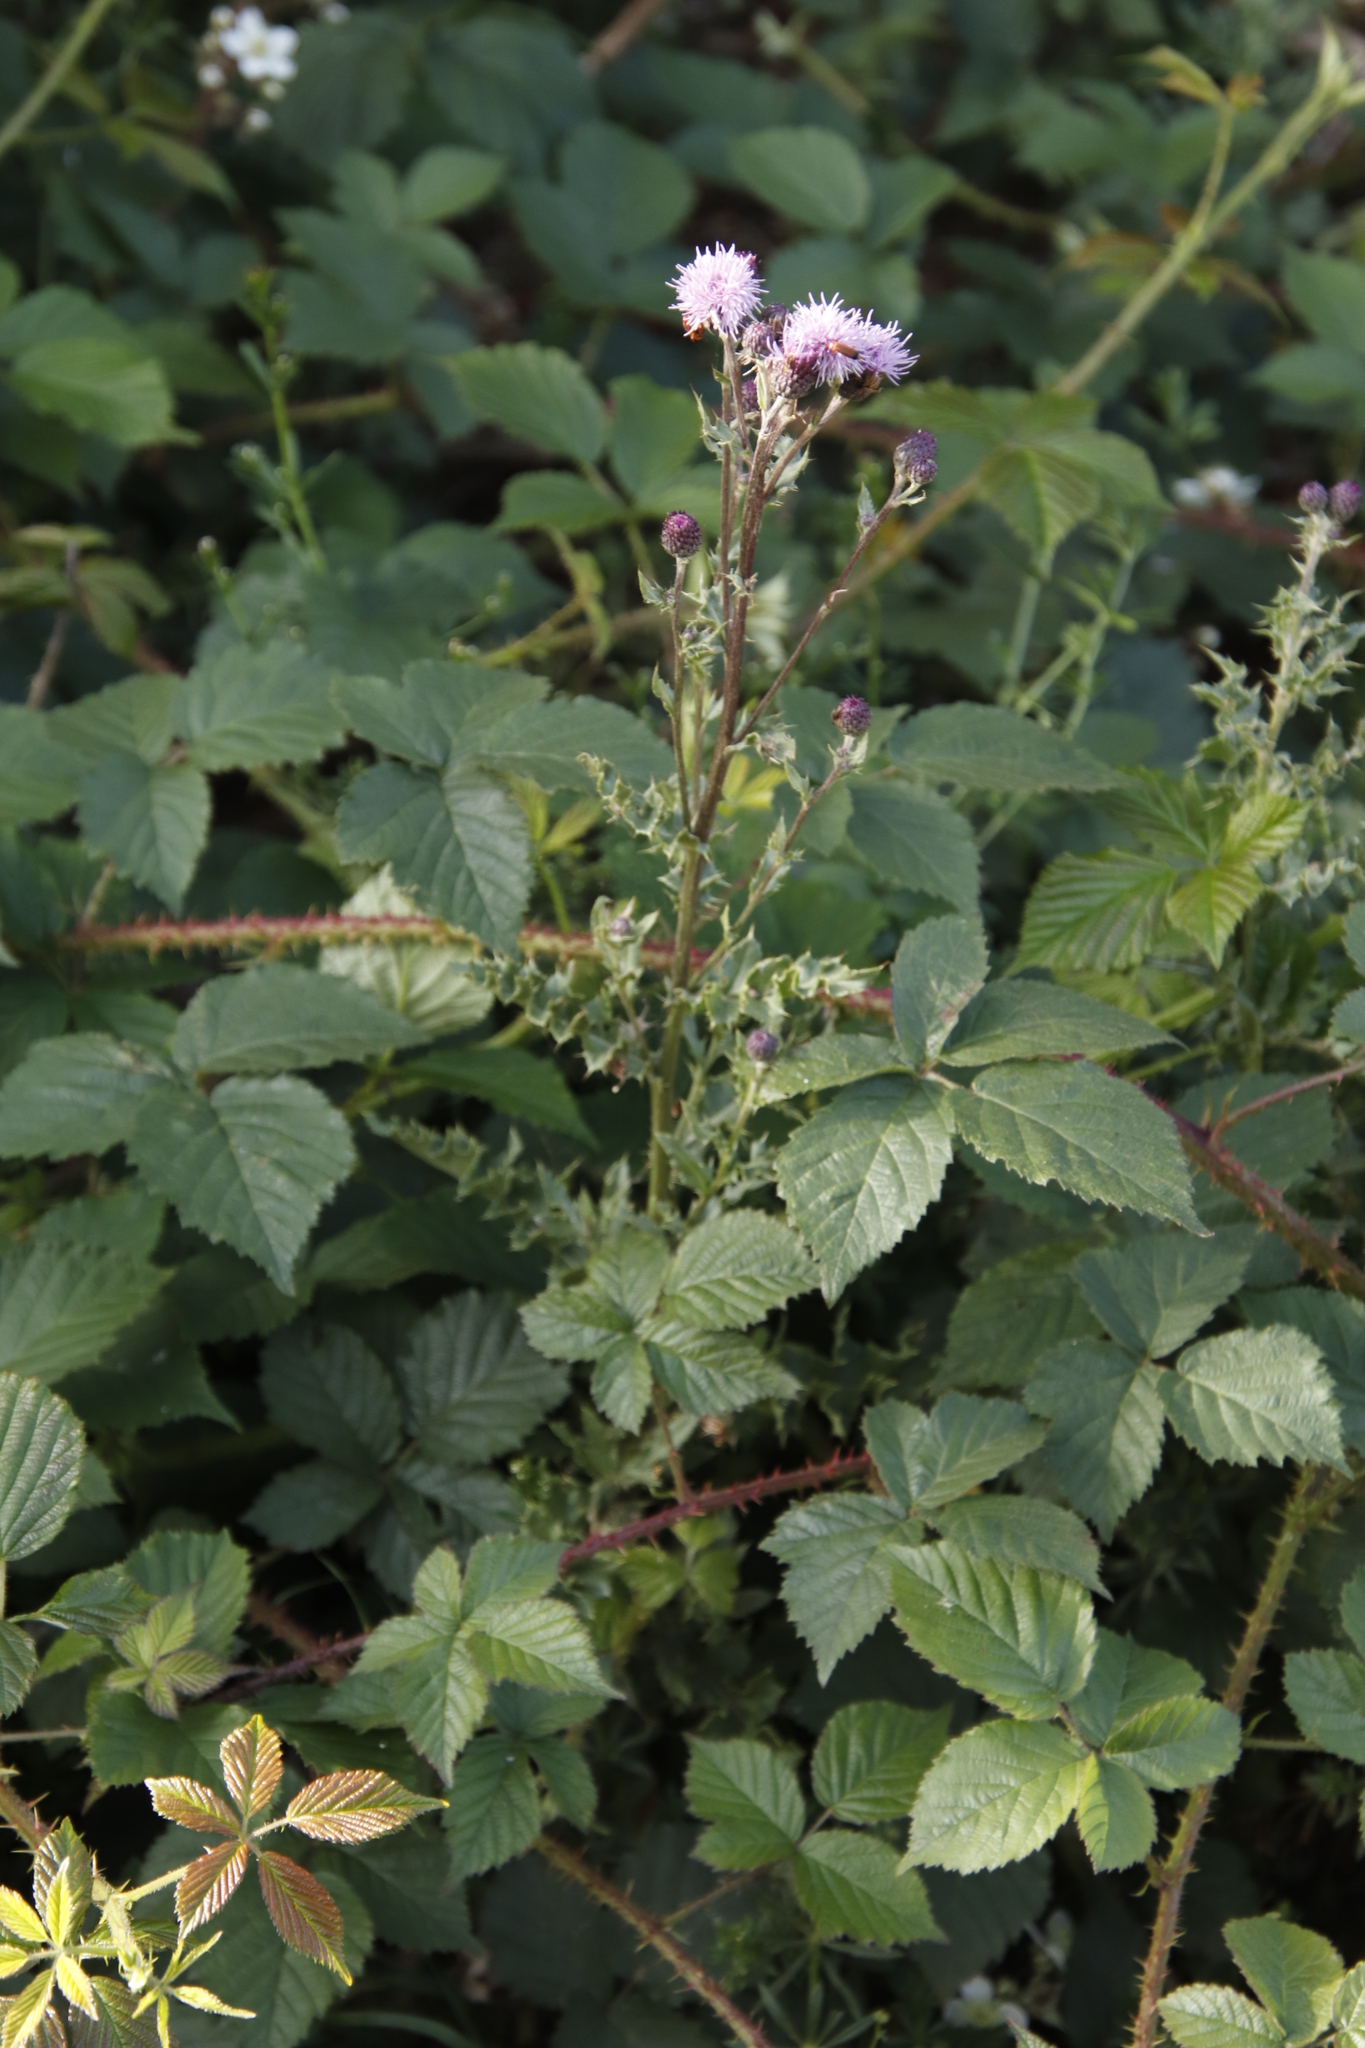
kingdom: Plantae
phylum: Tracheophyta
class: Magnoliopsida
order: Asterales
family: Asteraceae
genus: Cirsium
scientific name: Cirsium arvense
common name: Creeping thistle
